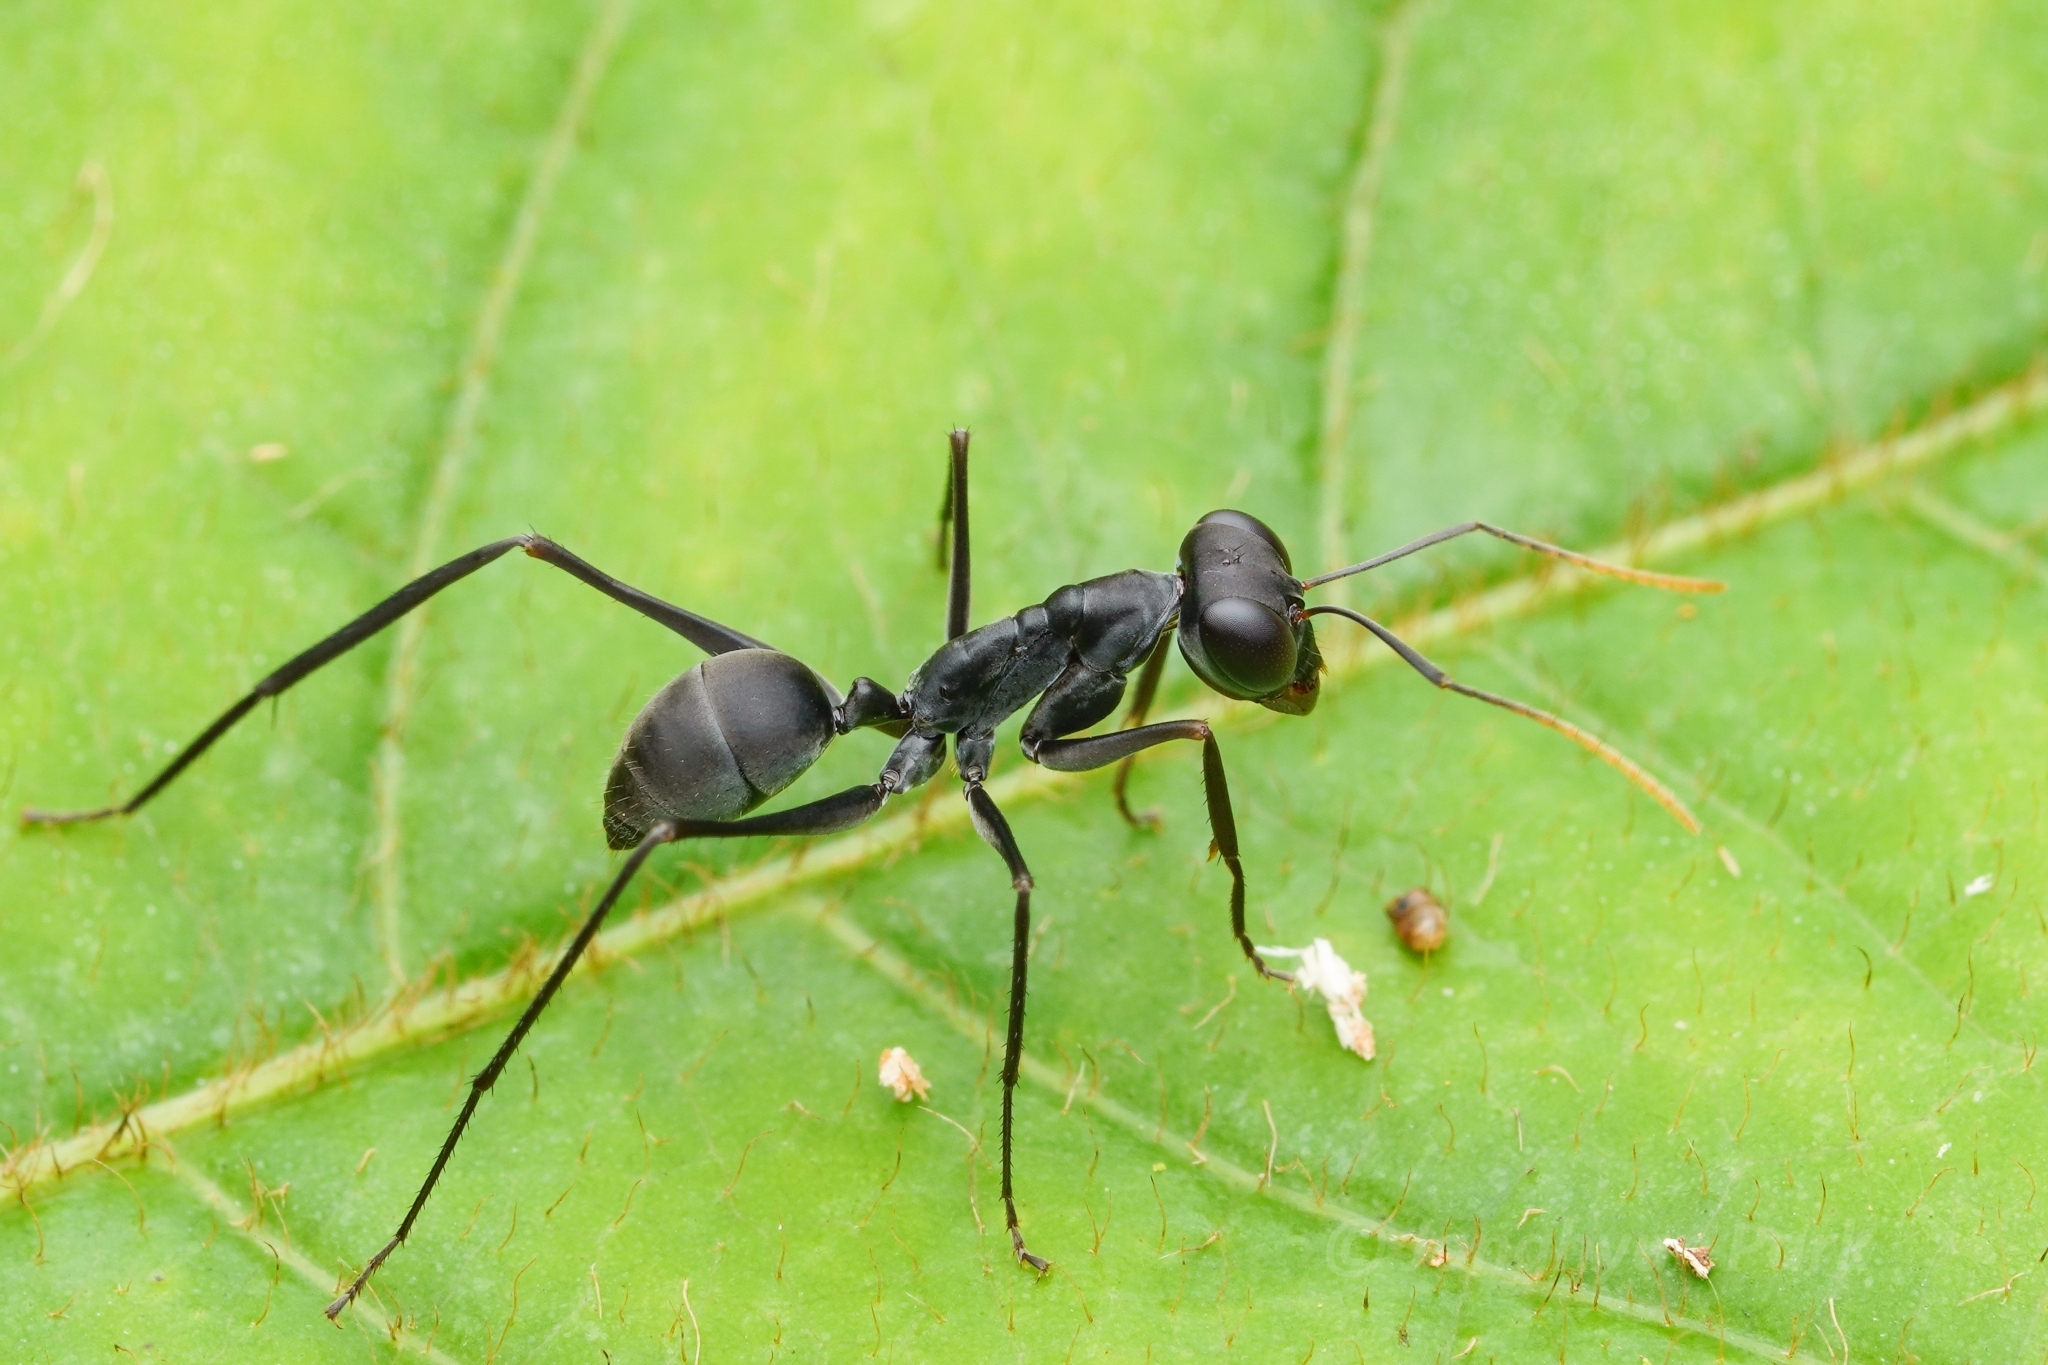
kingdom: Animalia
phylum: Arthropoda
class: Insecta
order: Hymenoptera
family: Formicidae
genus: Gigantiops
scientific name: Gigantiops destructor
